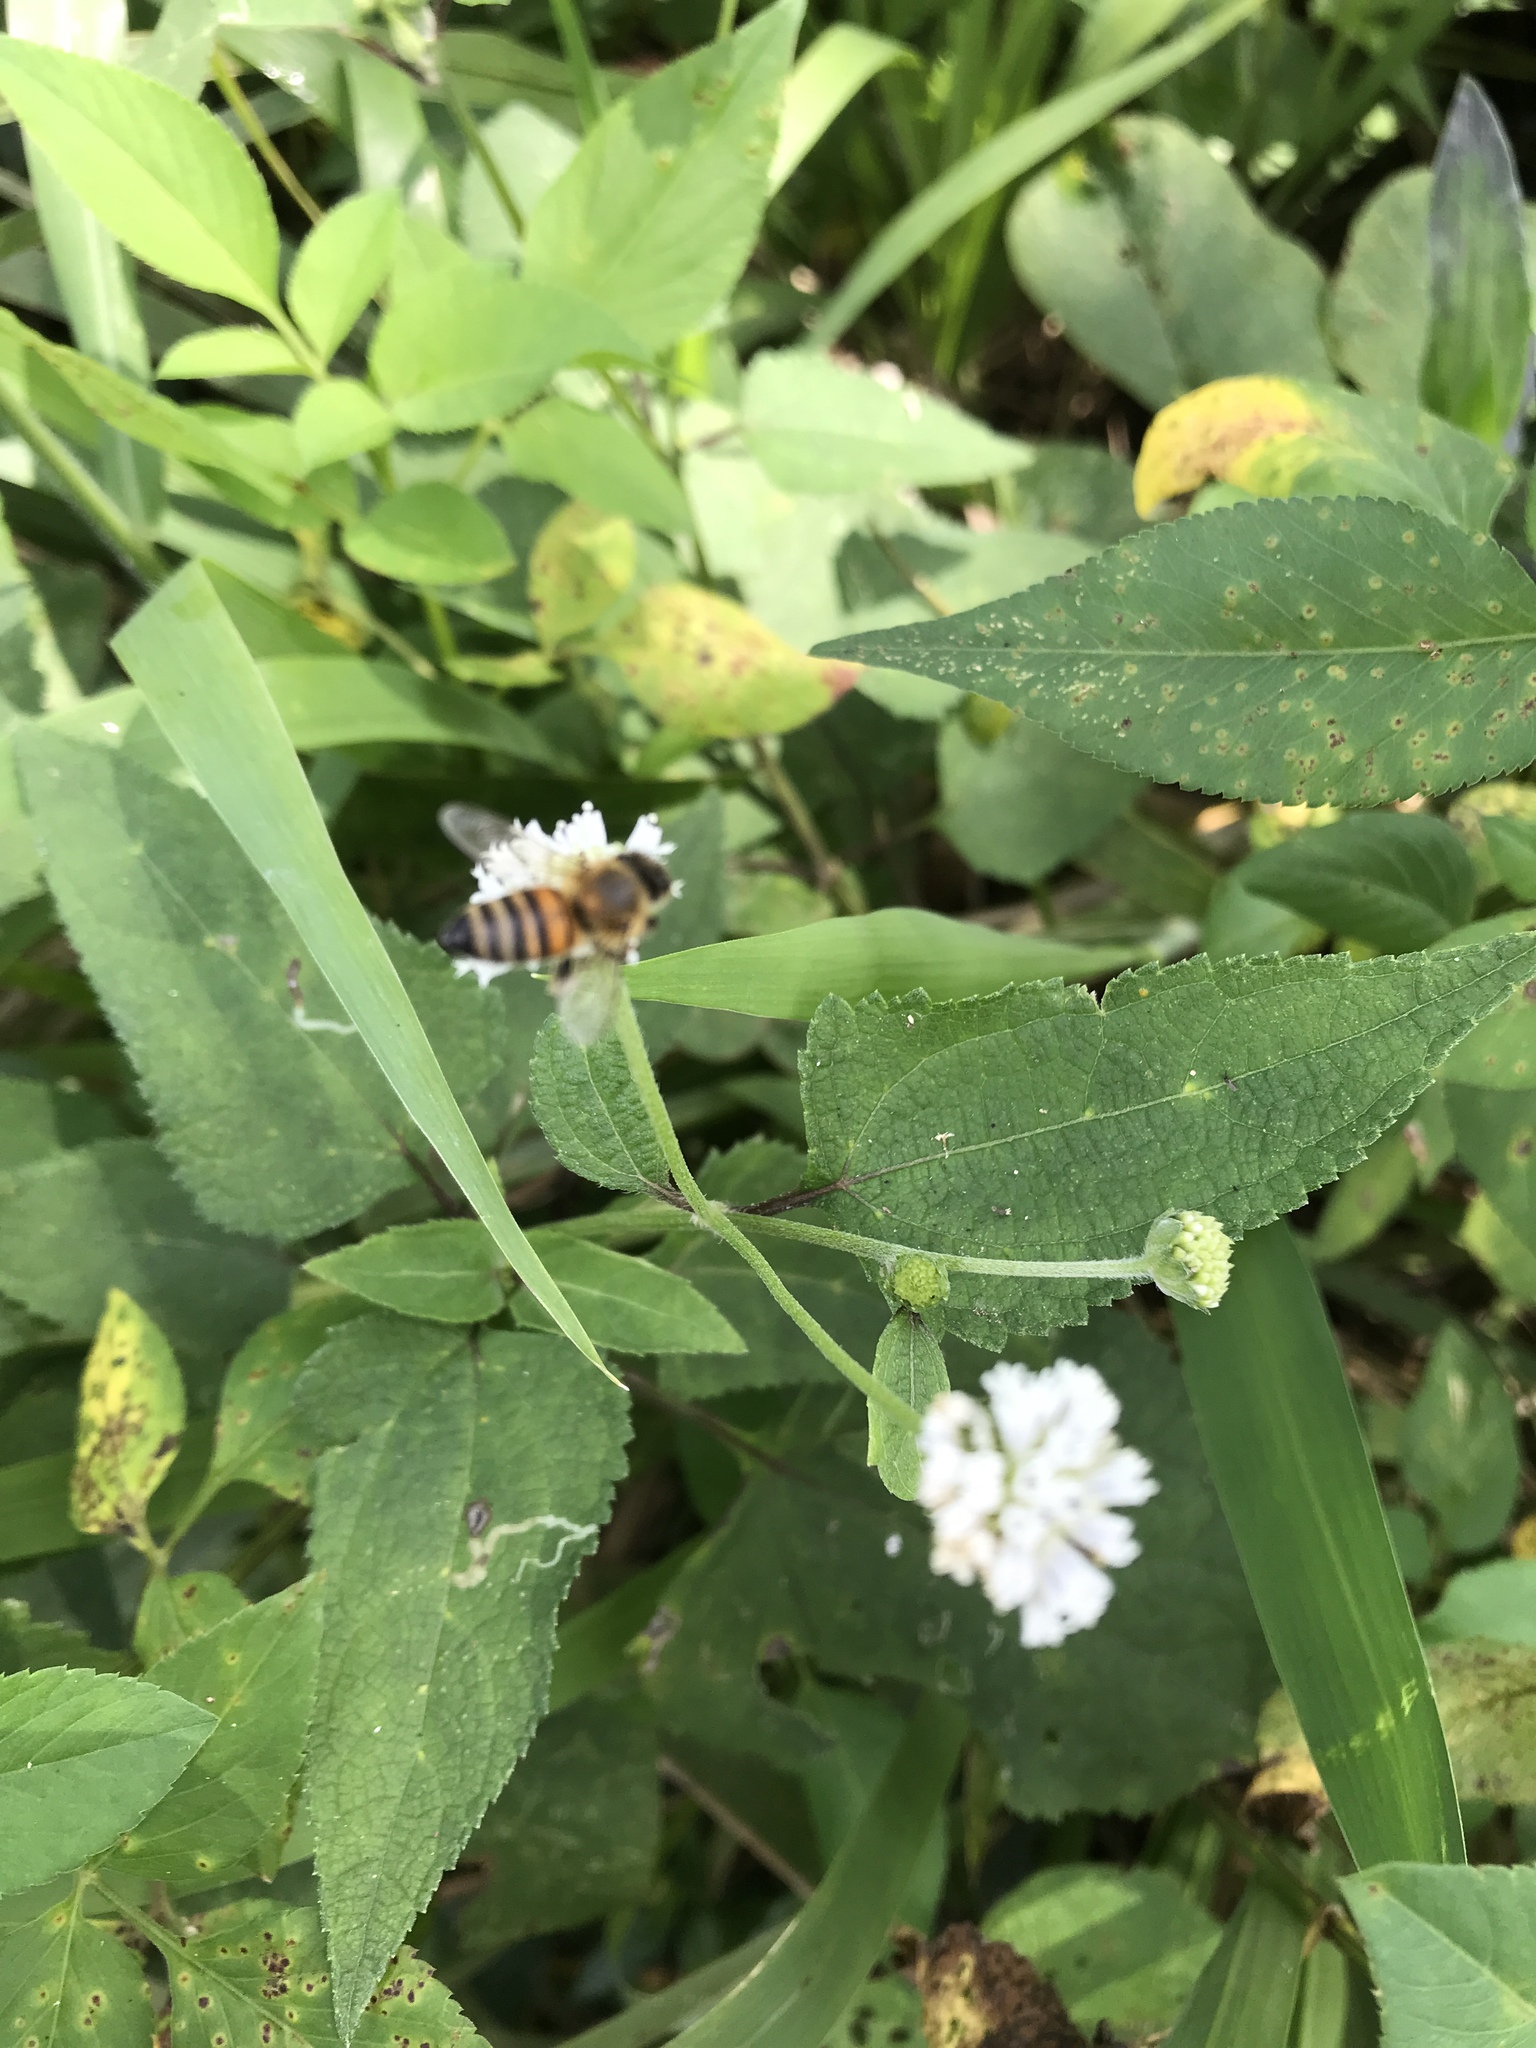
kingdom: Animalia
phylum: Arthropoda
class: Insecta
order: Hymenoptera
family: Apidae
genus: Apis
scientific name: Apis mellifera
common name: Honey bee
